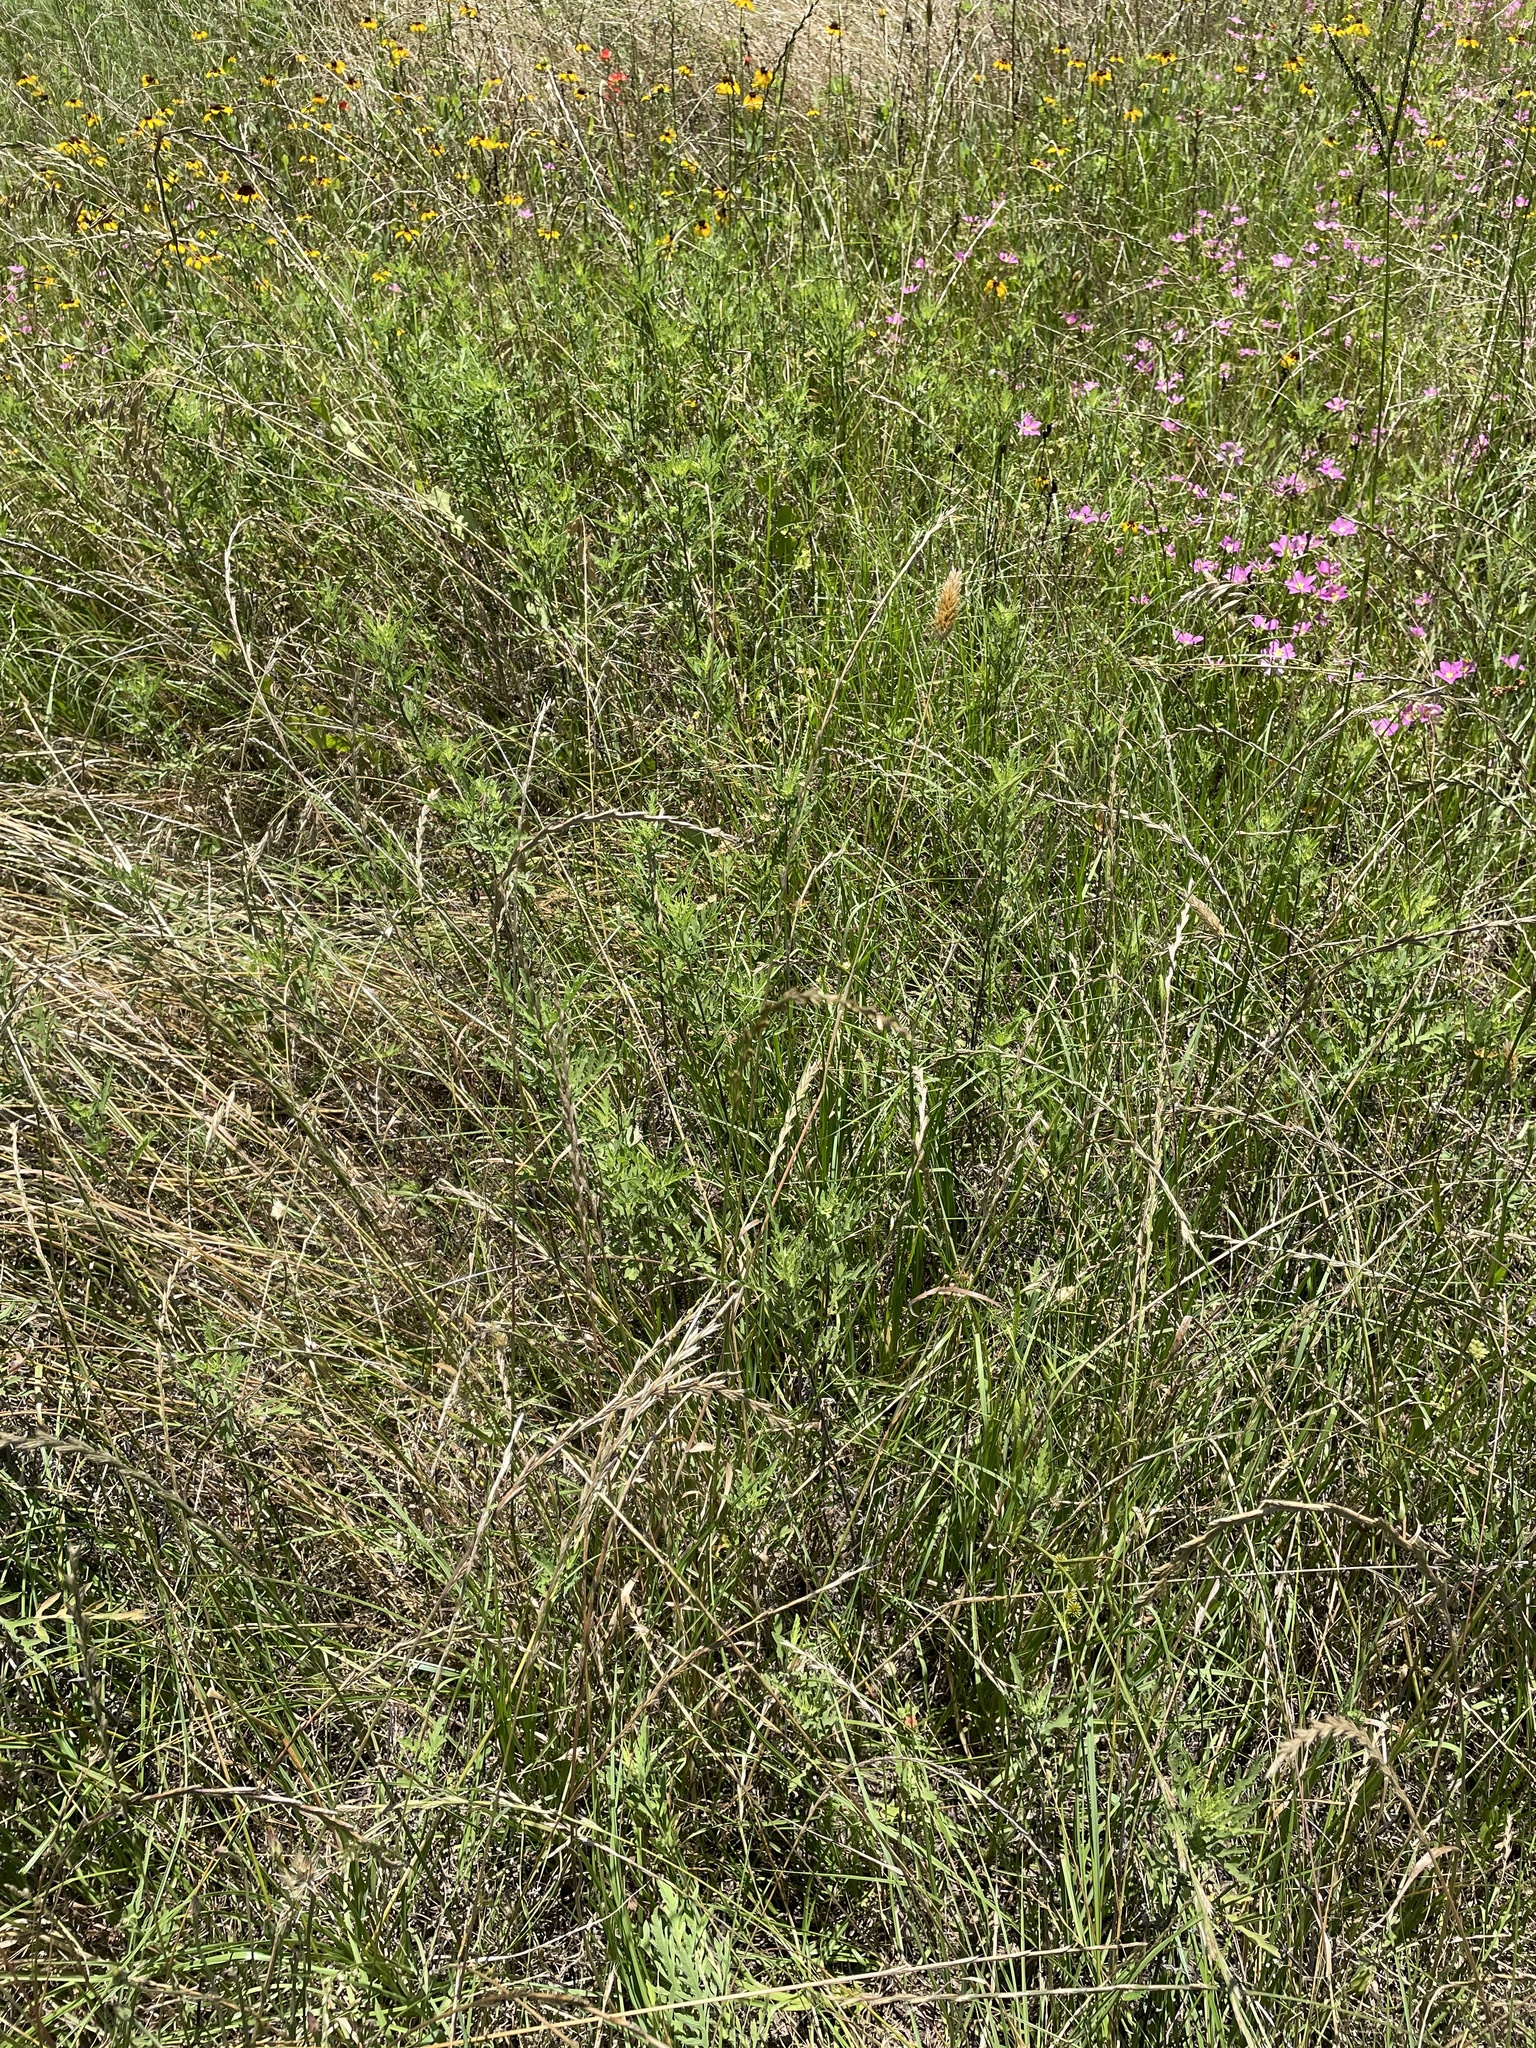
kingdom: Plantae
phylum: Tracheophyta
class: Liliopsida
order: Poales
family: Poaceae
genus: Phalaris
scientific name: Phalaris caroliniana
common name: May grass
